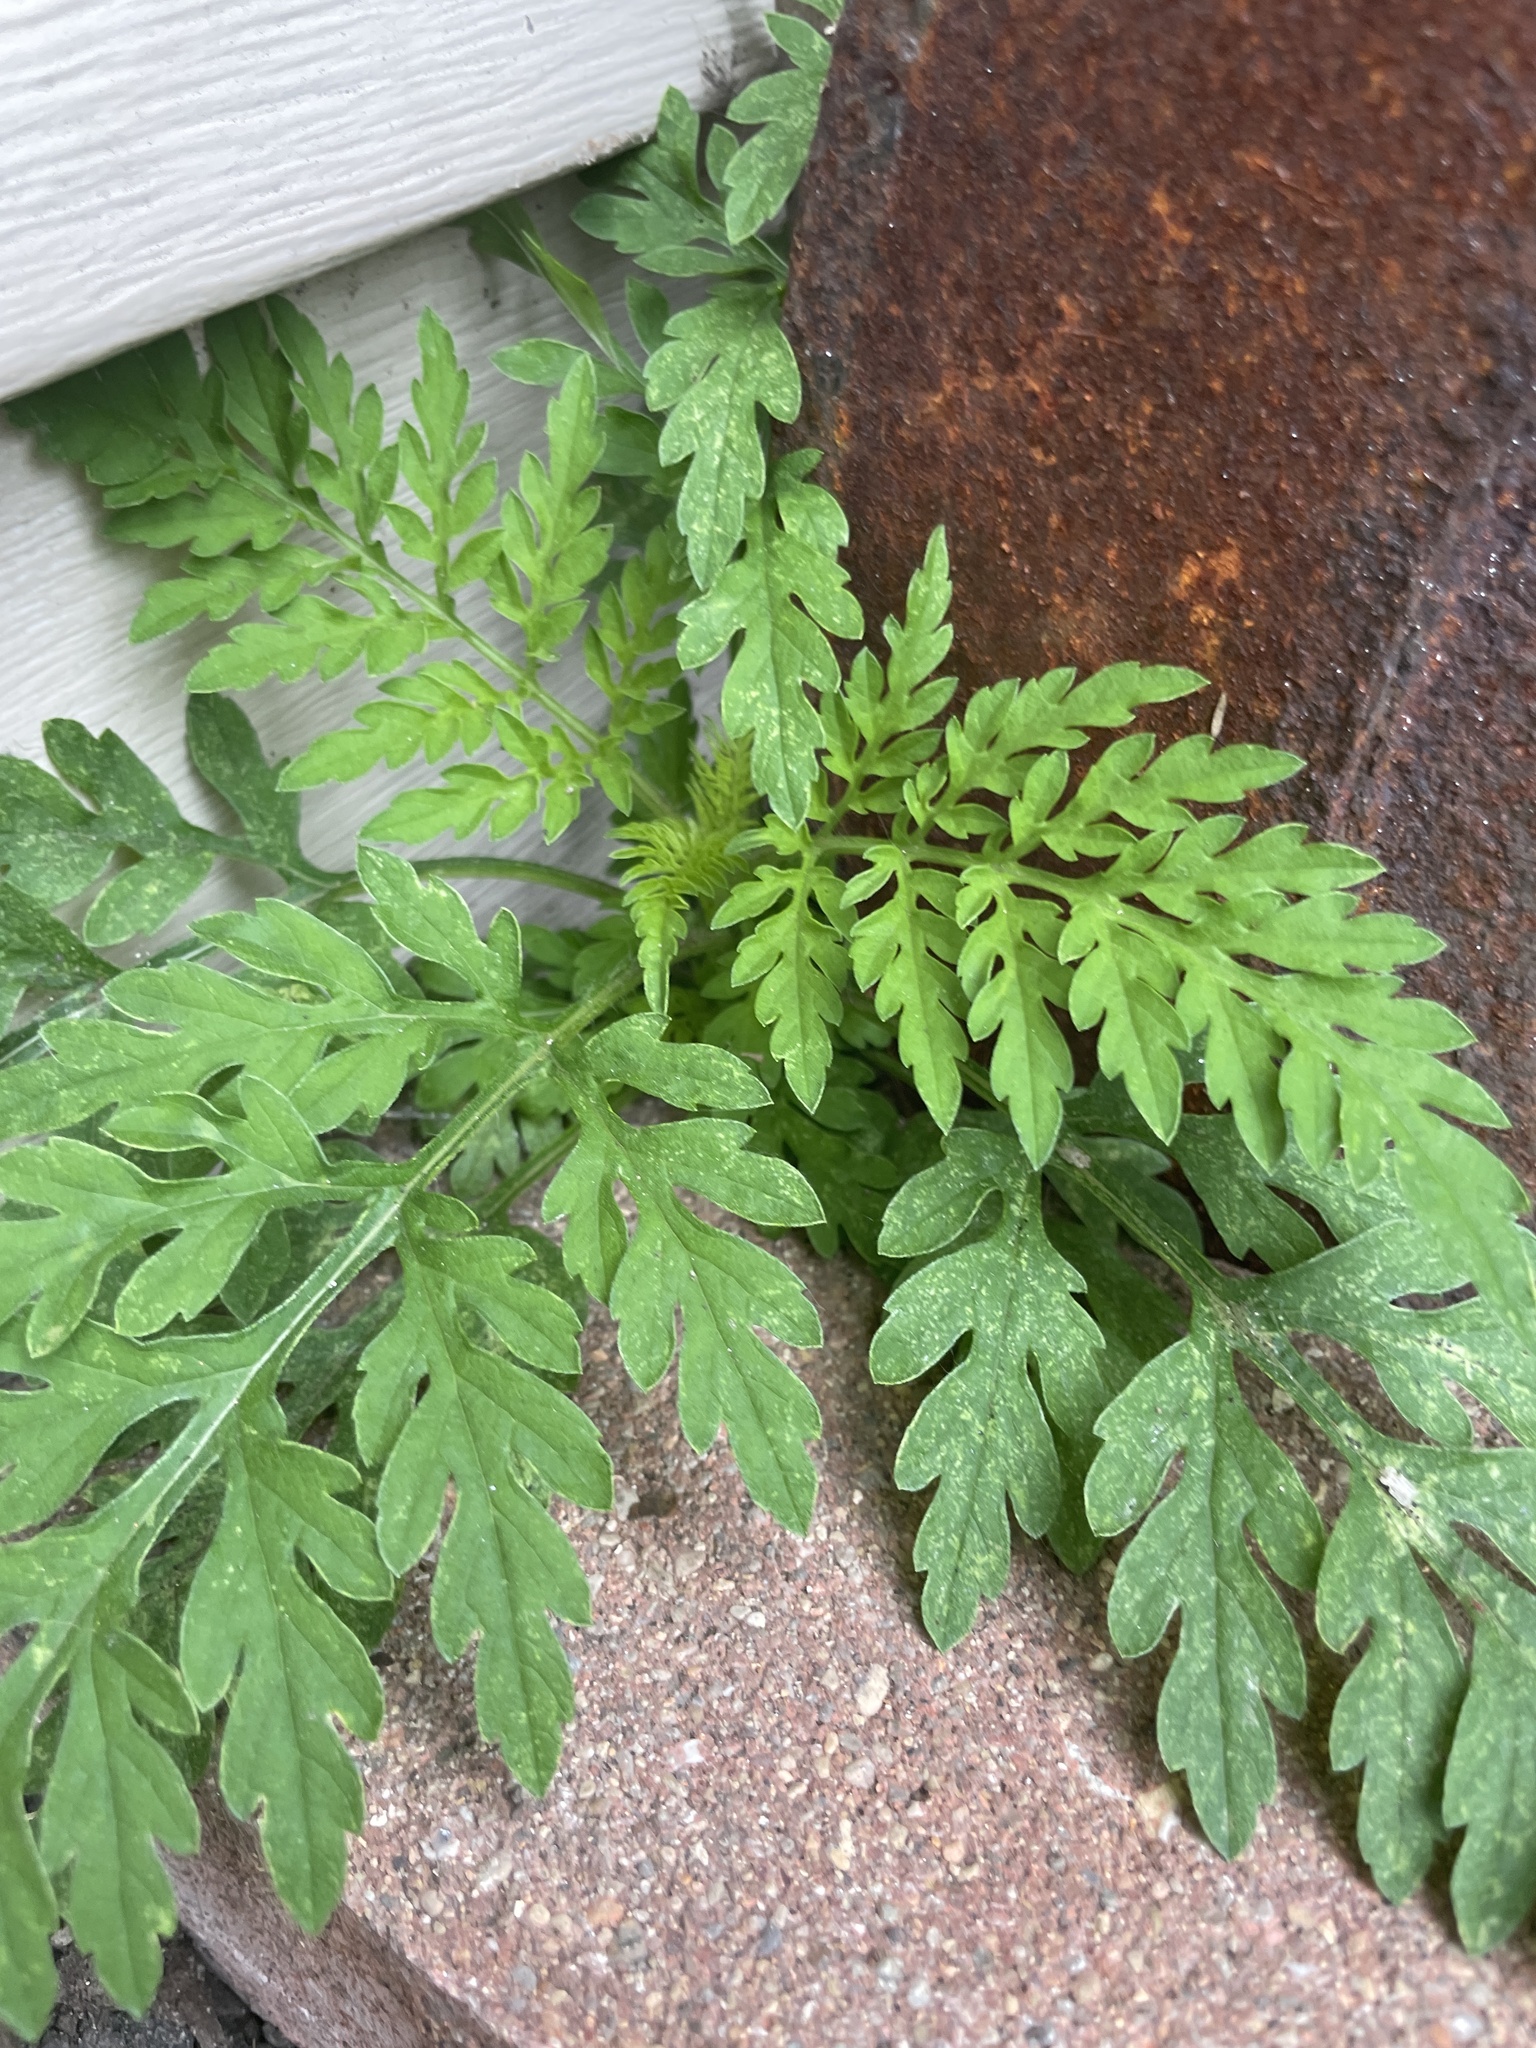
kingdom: Plantae
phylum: Tracheophyta
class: Magnoliopsida
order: Asterales
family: Asteraceae
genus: Ambrosia
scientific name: Ambrosia artemisiifolia
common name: Annual ragweed
